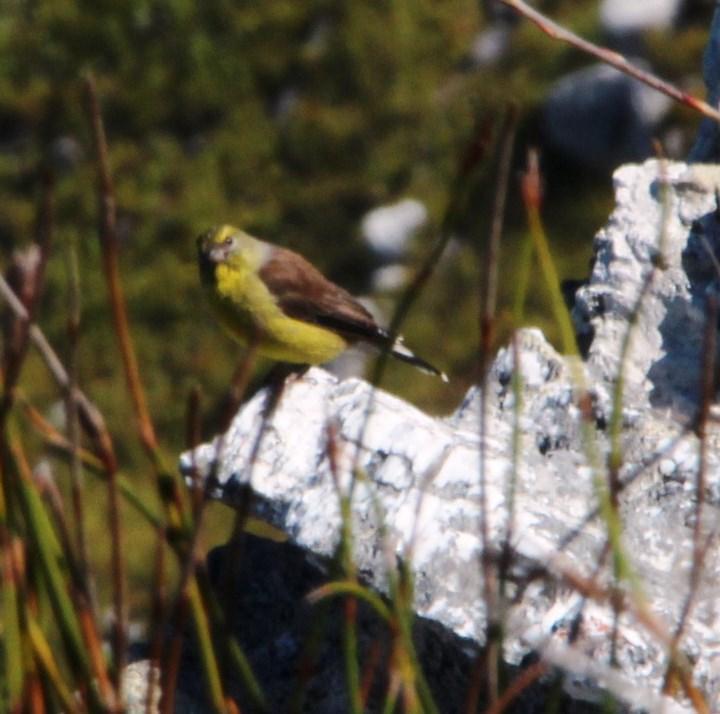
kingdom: Animalia
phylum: Chordata
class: Aves
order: Passeriformes
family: Fringillidae
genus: Crithagra
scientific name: Crithagra totta
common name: Cape siskin
